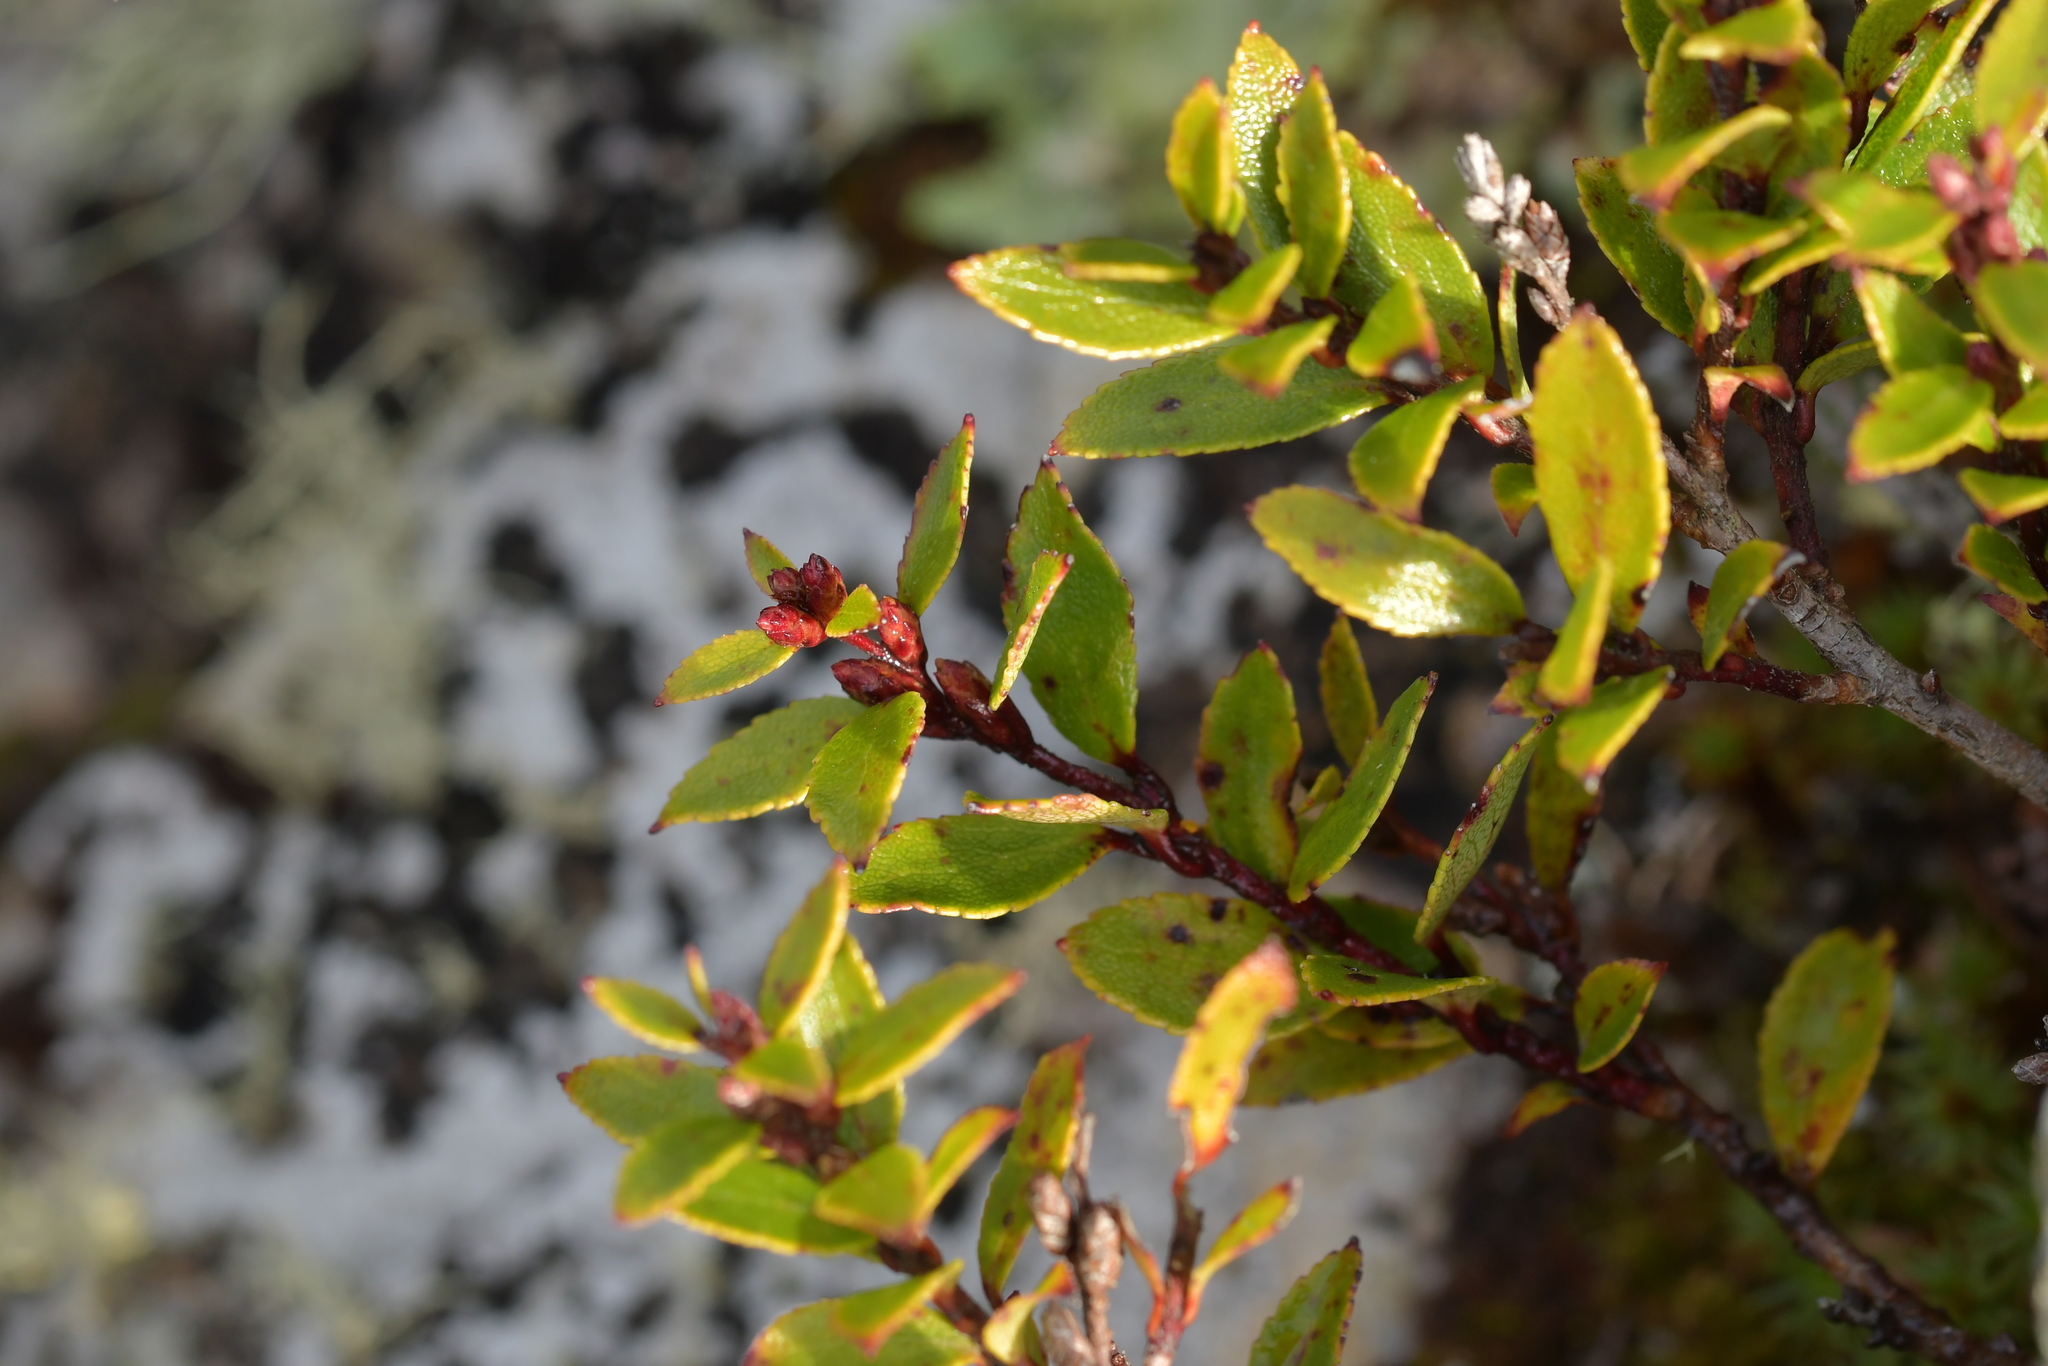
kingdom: Plantae
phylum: Tracheophyta
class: Magnoliopsida
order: Ericales
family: Ericaceae
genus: Gaultheria
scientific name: Gaultheria rupestris
